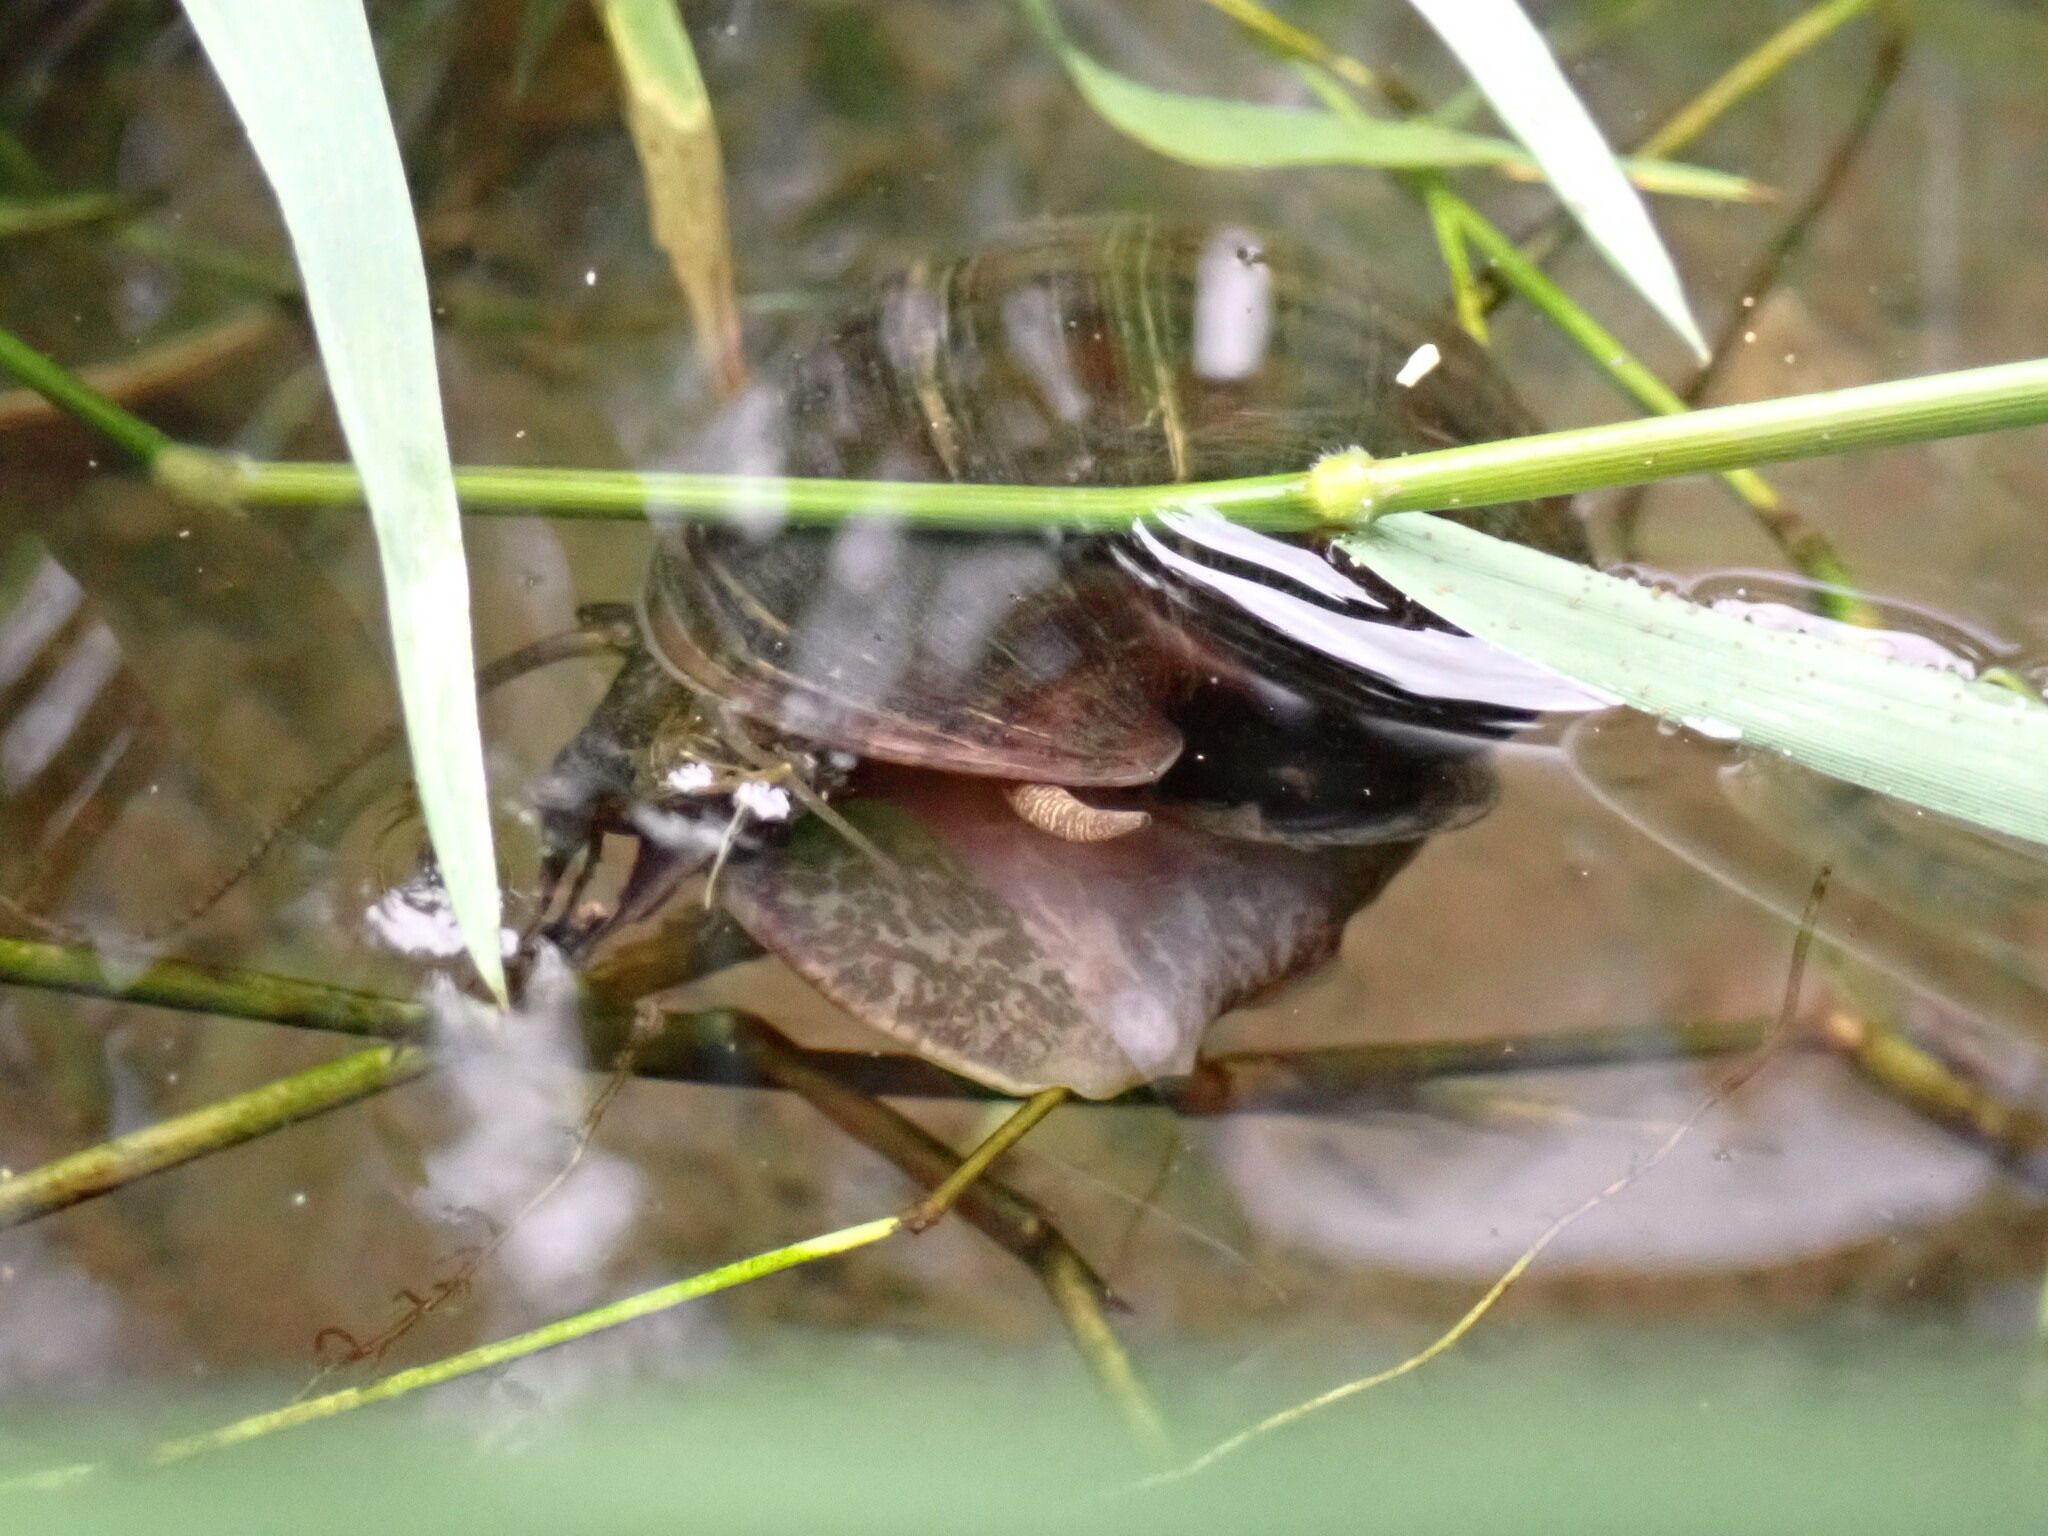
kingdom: Animalia
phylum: Mollusca
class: Gastropoda
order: Architaenioglossa
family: Ampullariidae
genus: Pomacea
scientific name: Pomacea canaliculata
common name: Channeled applesnail
